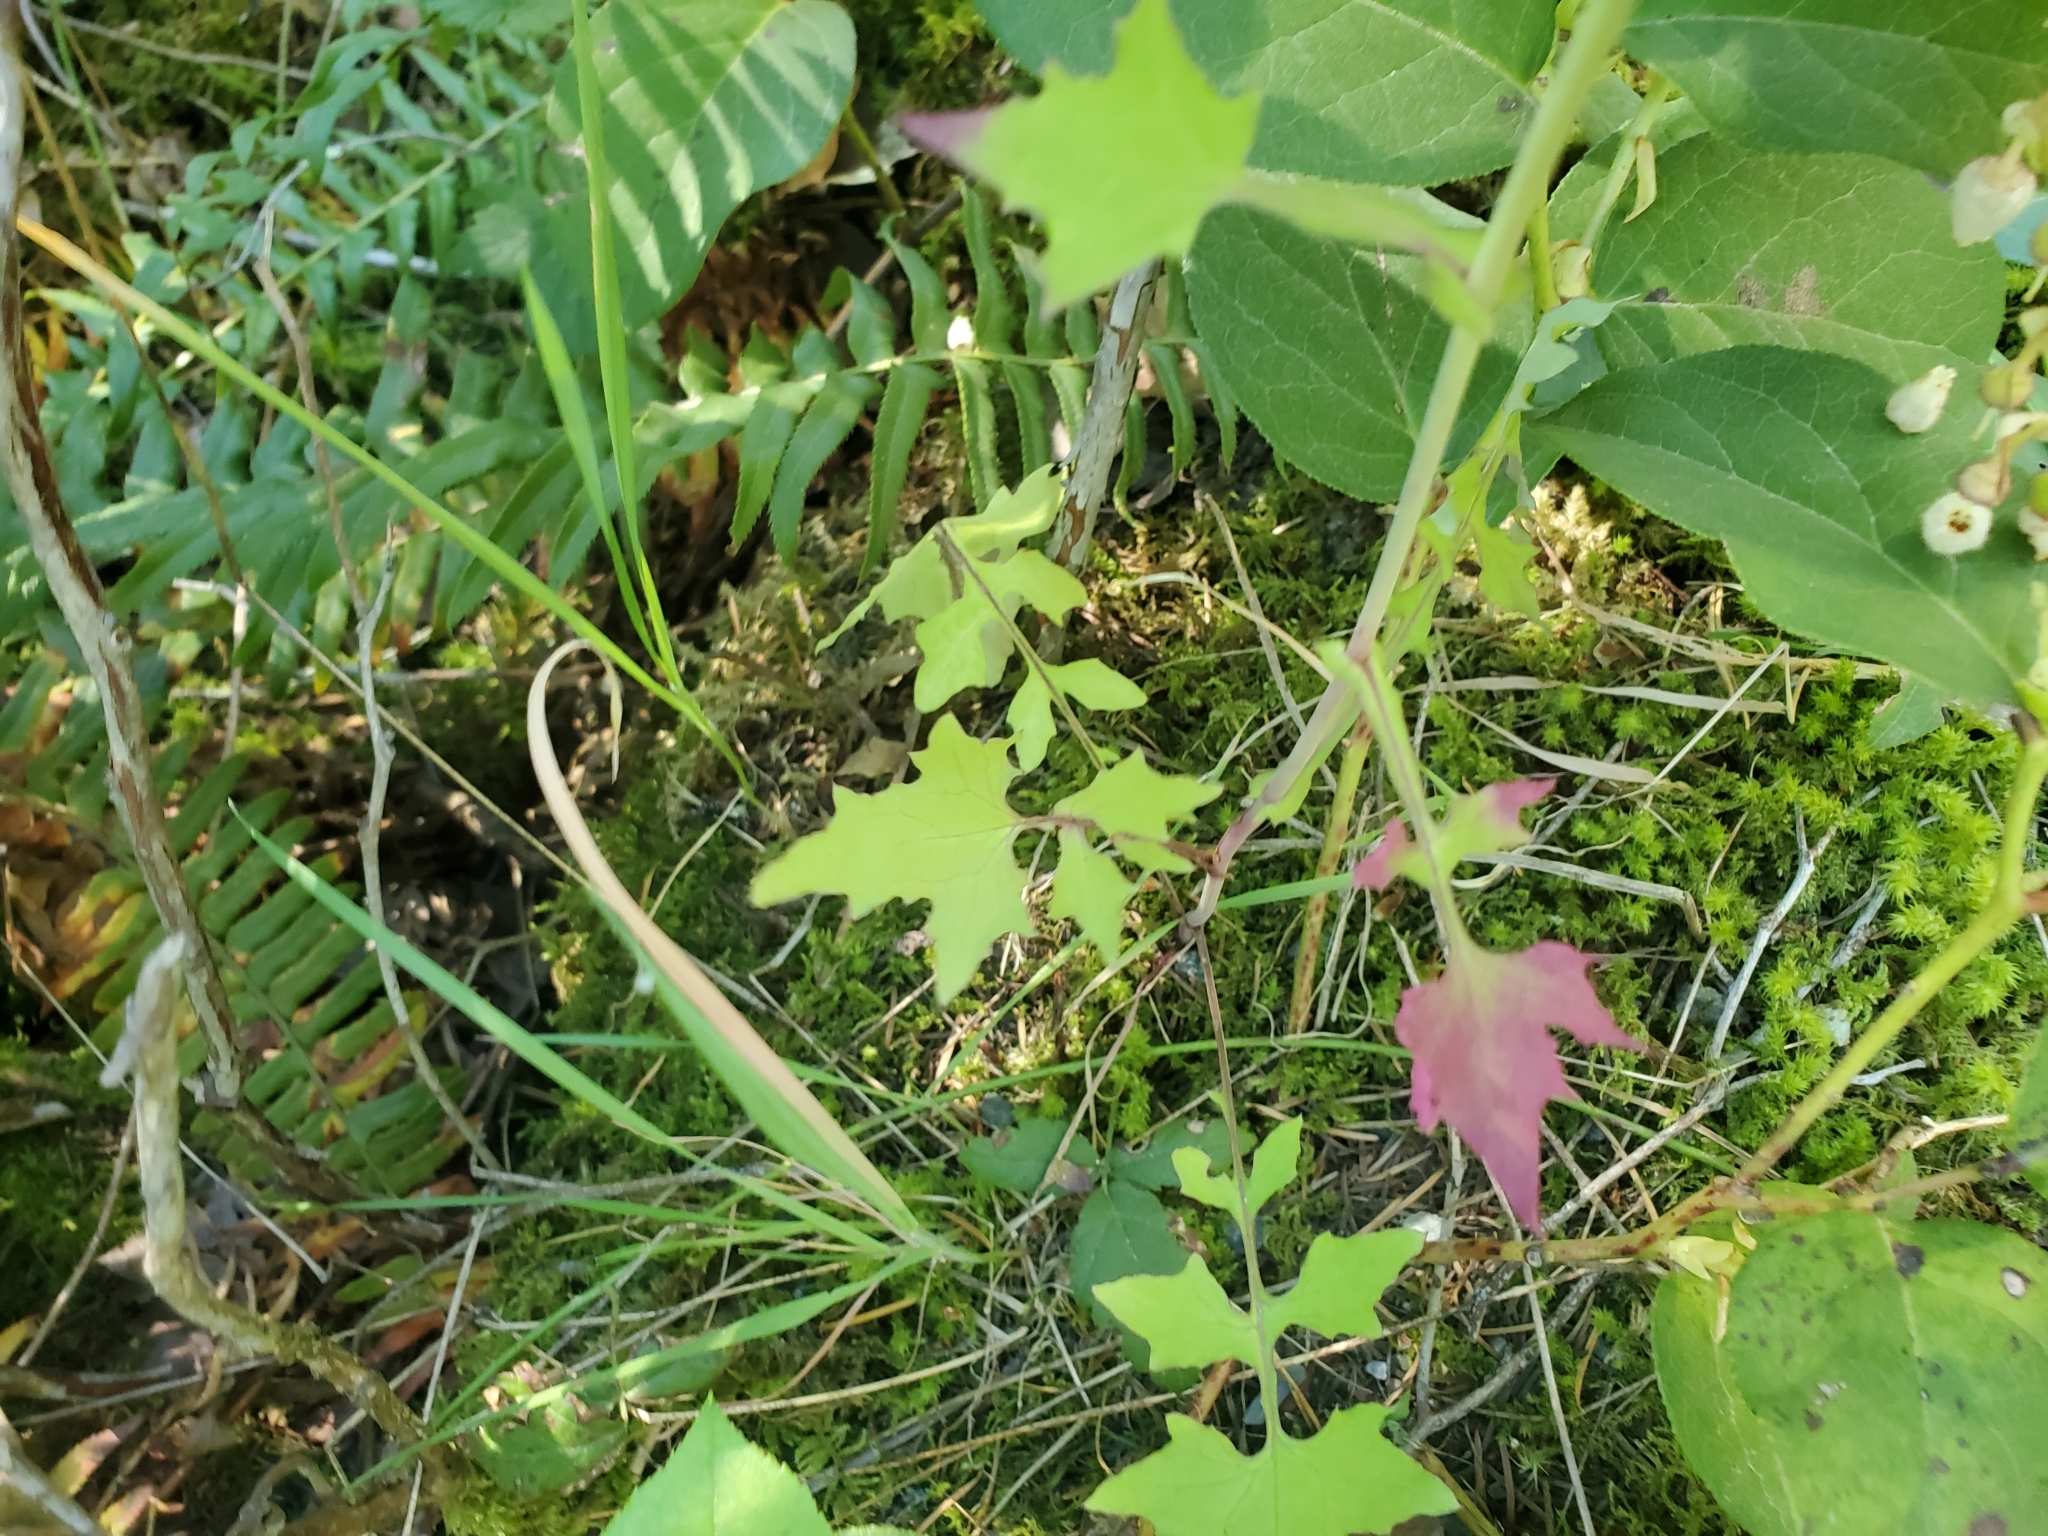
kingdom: Plantae
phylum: Tracheophyta
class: Magnoliopsida
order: Asterales
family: Asteraceae
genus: Mycelis
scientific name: Mycelis muralis
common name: Wall lettuce
